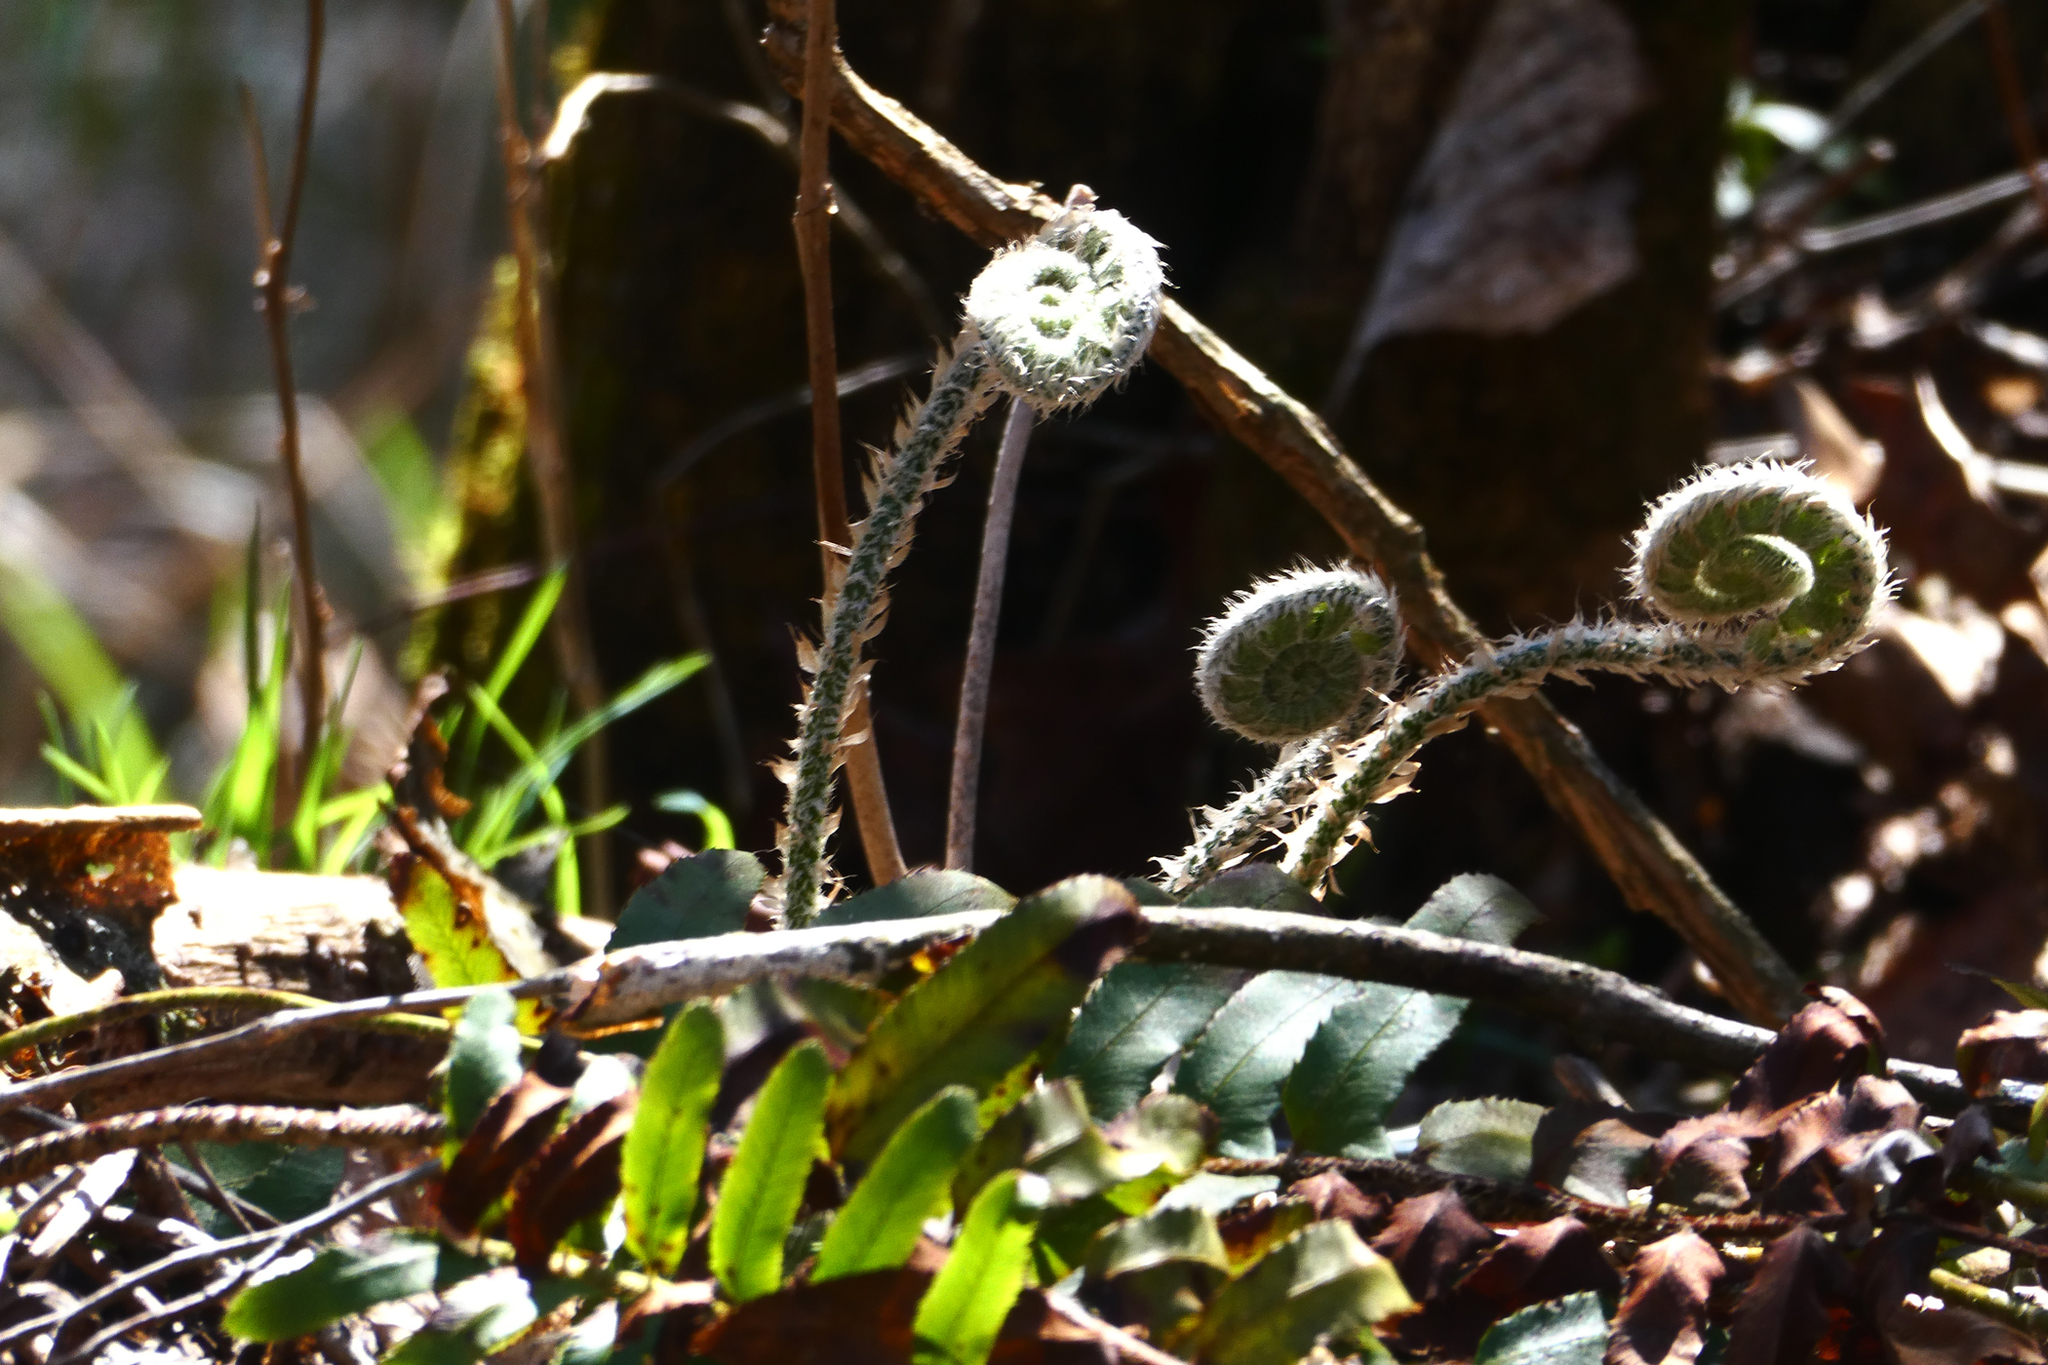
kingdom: Plantae
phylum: Tracheophyta
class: Polypodiopsida
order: Polypodiales
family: Dryopteridaceae
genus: Polystichum
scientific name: Polystichum acrostichoides
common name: Christmas fern
